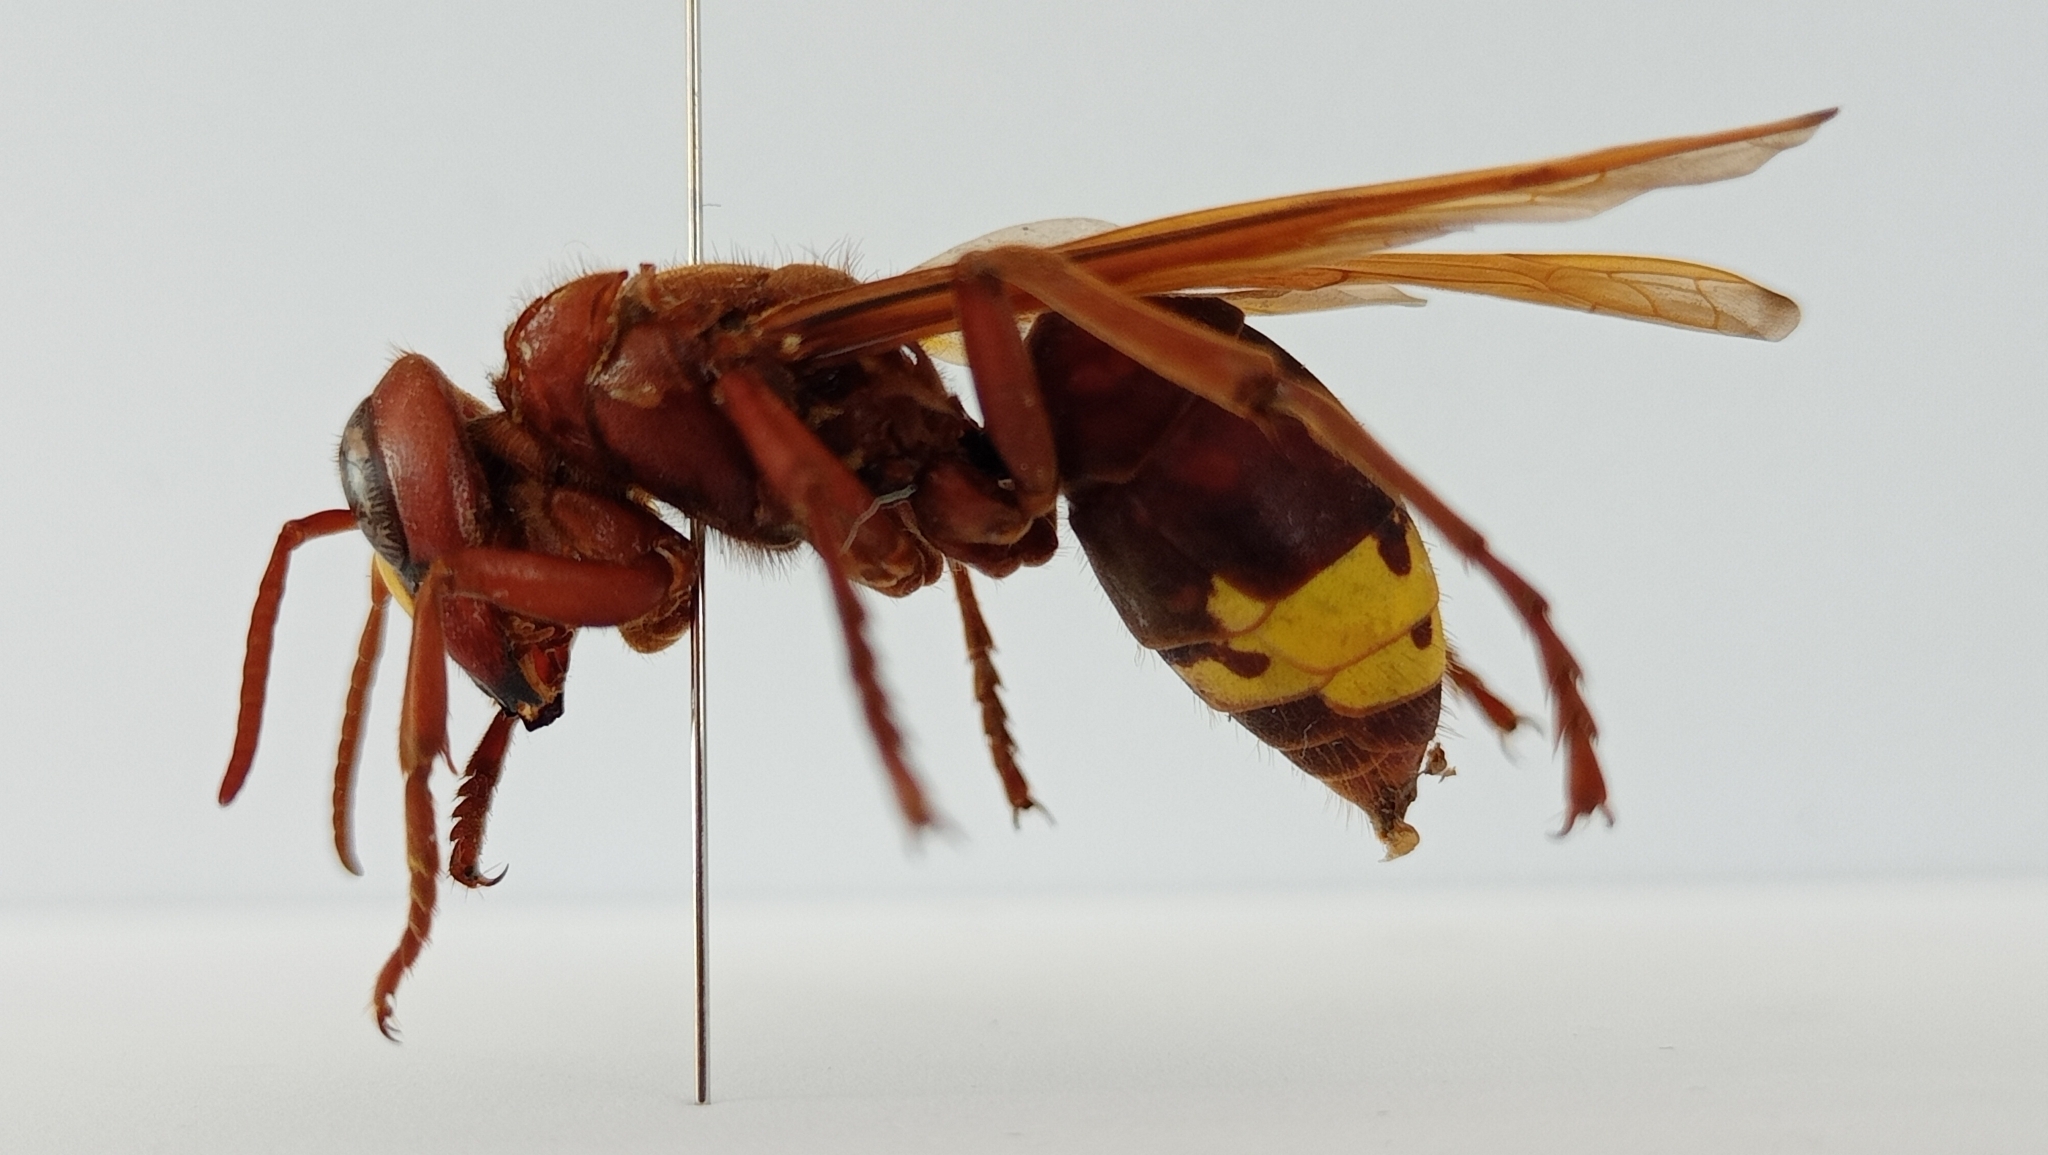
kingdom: Animalia
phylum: Arthropoda
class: Insecta
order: Hymenoptera
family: Vespidae
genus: Vespa
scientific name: Vespa orientalis
